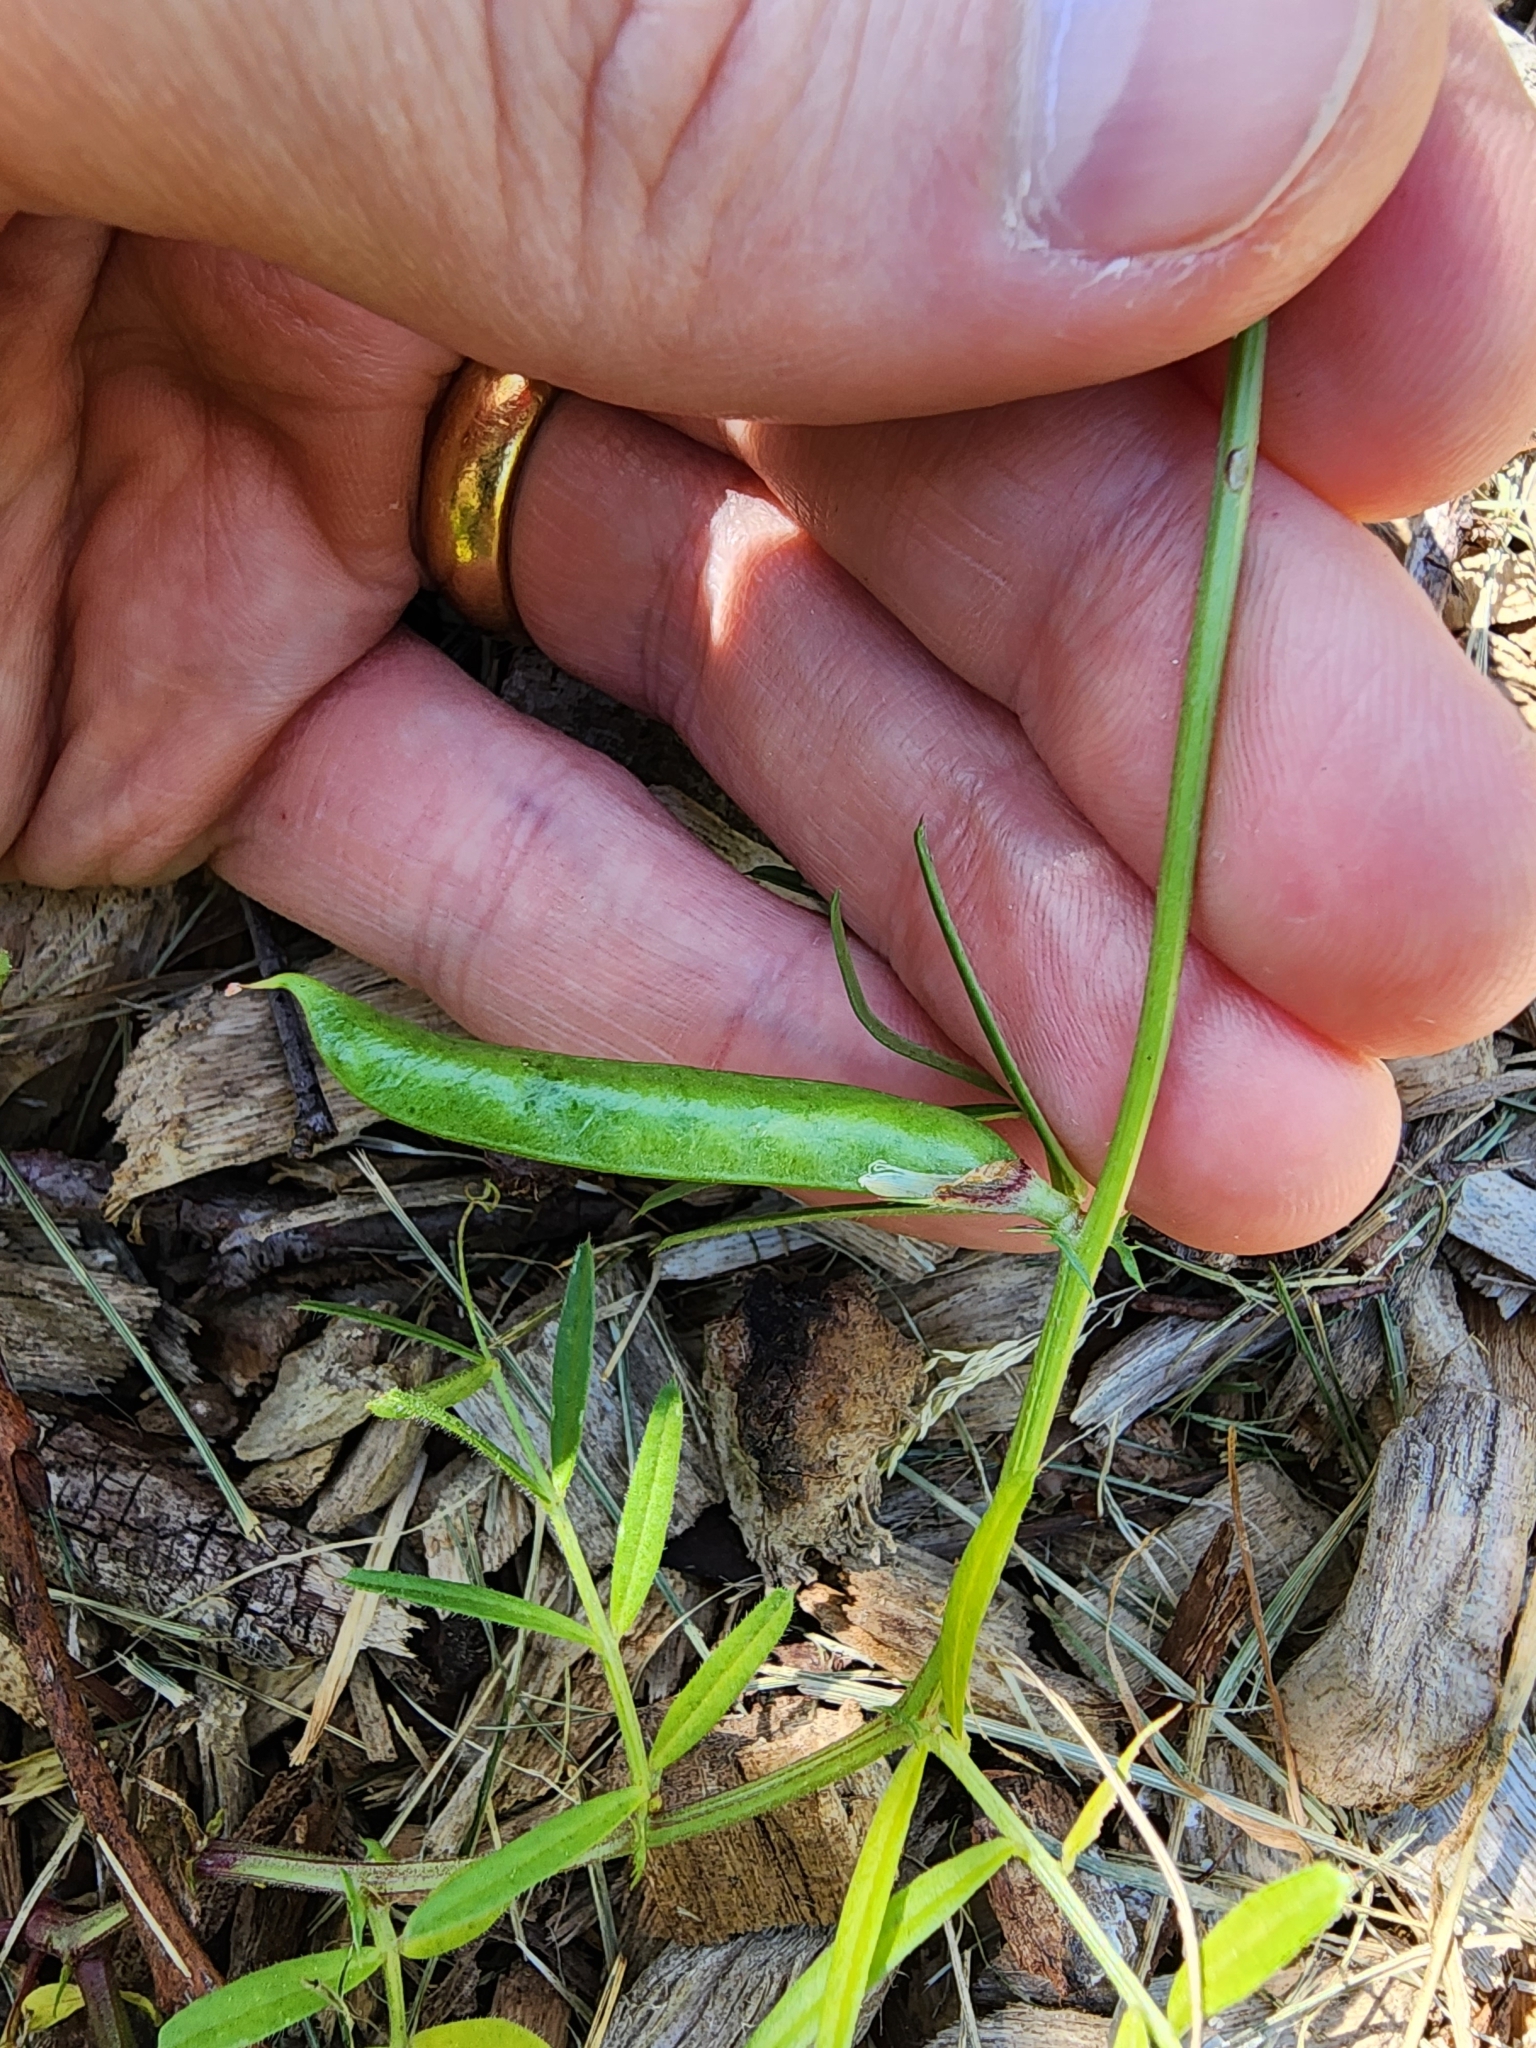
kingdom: Plantae
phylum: Tracheophyta
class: Magnoliopsida
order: Fabales
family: Fabaceae
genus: Vicia
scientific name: Vicia sativa
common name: Garden vetch
